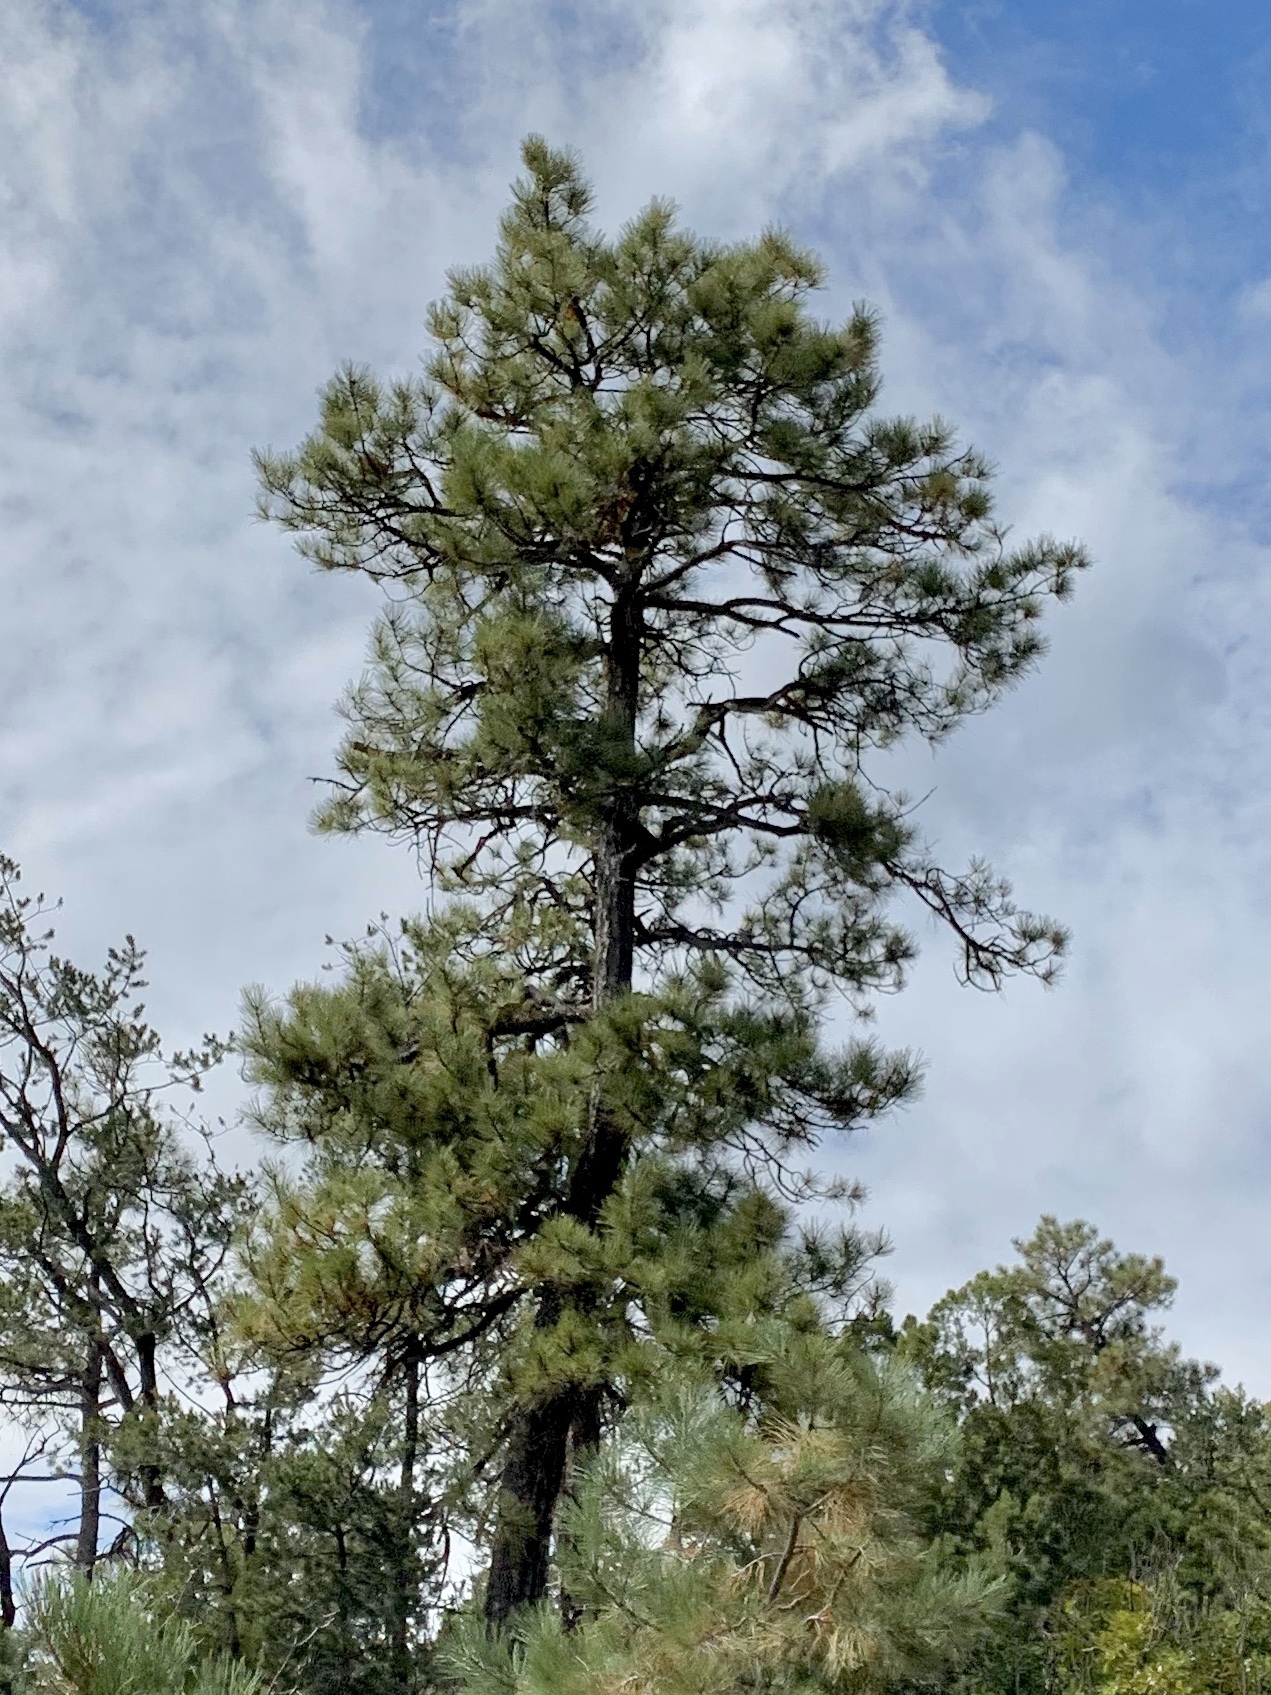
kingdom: Plantae
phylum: Tracheophyta
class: Pinopsida
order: Pinales
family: Pinaceae
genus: Pinus
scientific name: Pinus ponderosa
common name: Western yellow-pine
